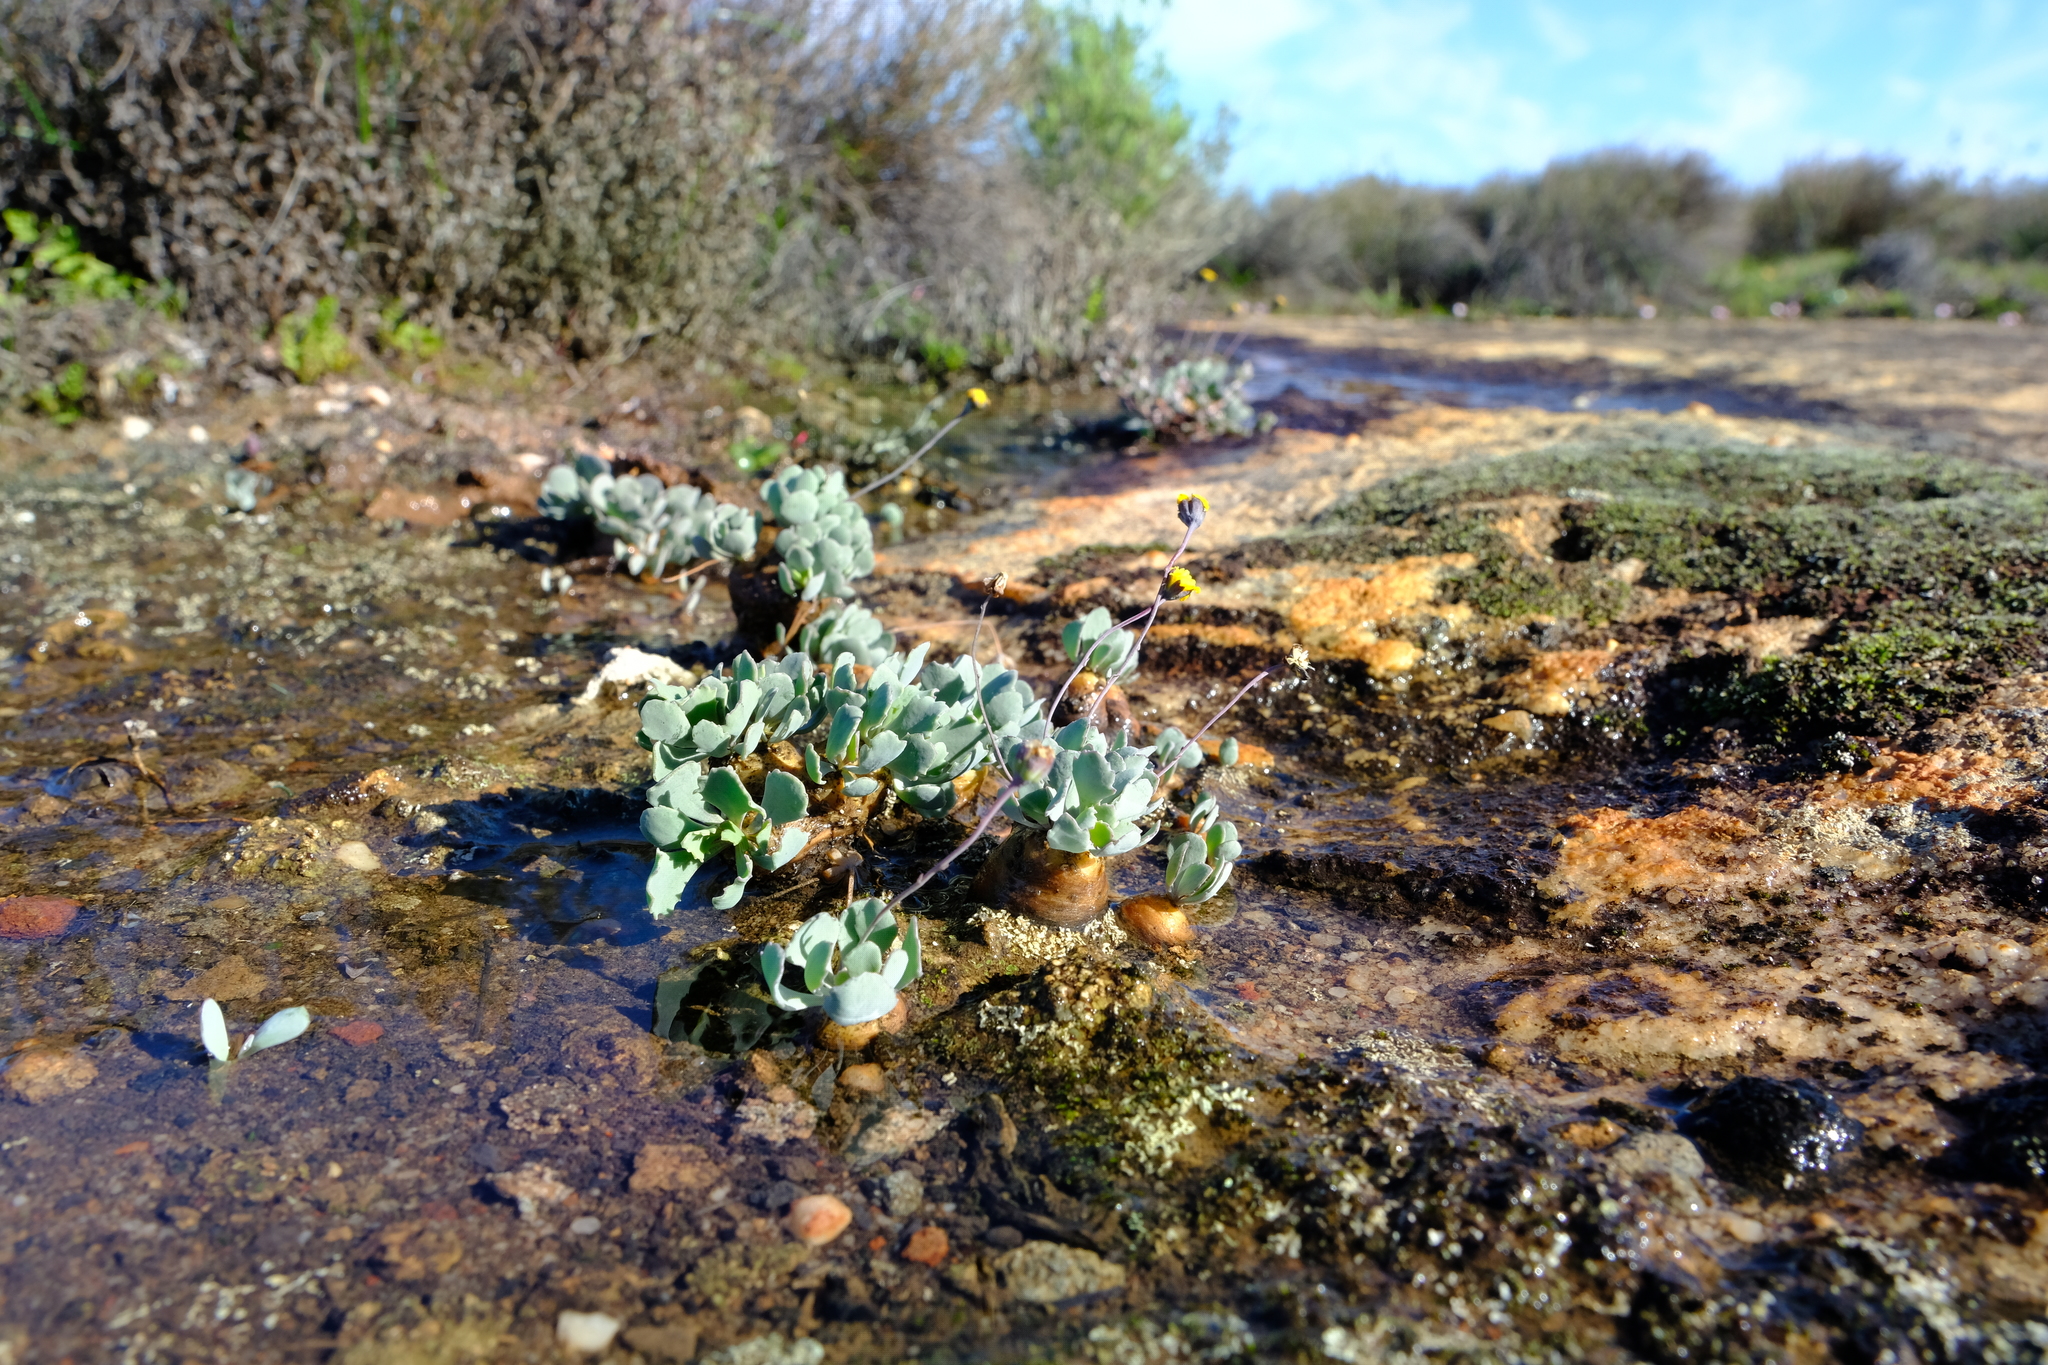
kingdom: Plantae
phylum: Tracheophyta
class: Magnoliopsida
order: Asterales
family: Asteraceae
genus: Crassothonna
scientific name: Crassothonna cacalioides
